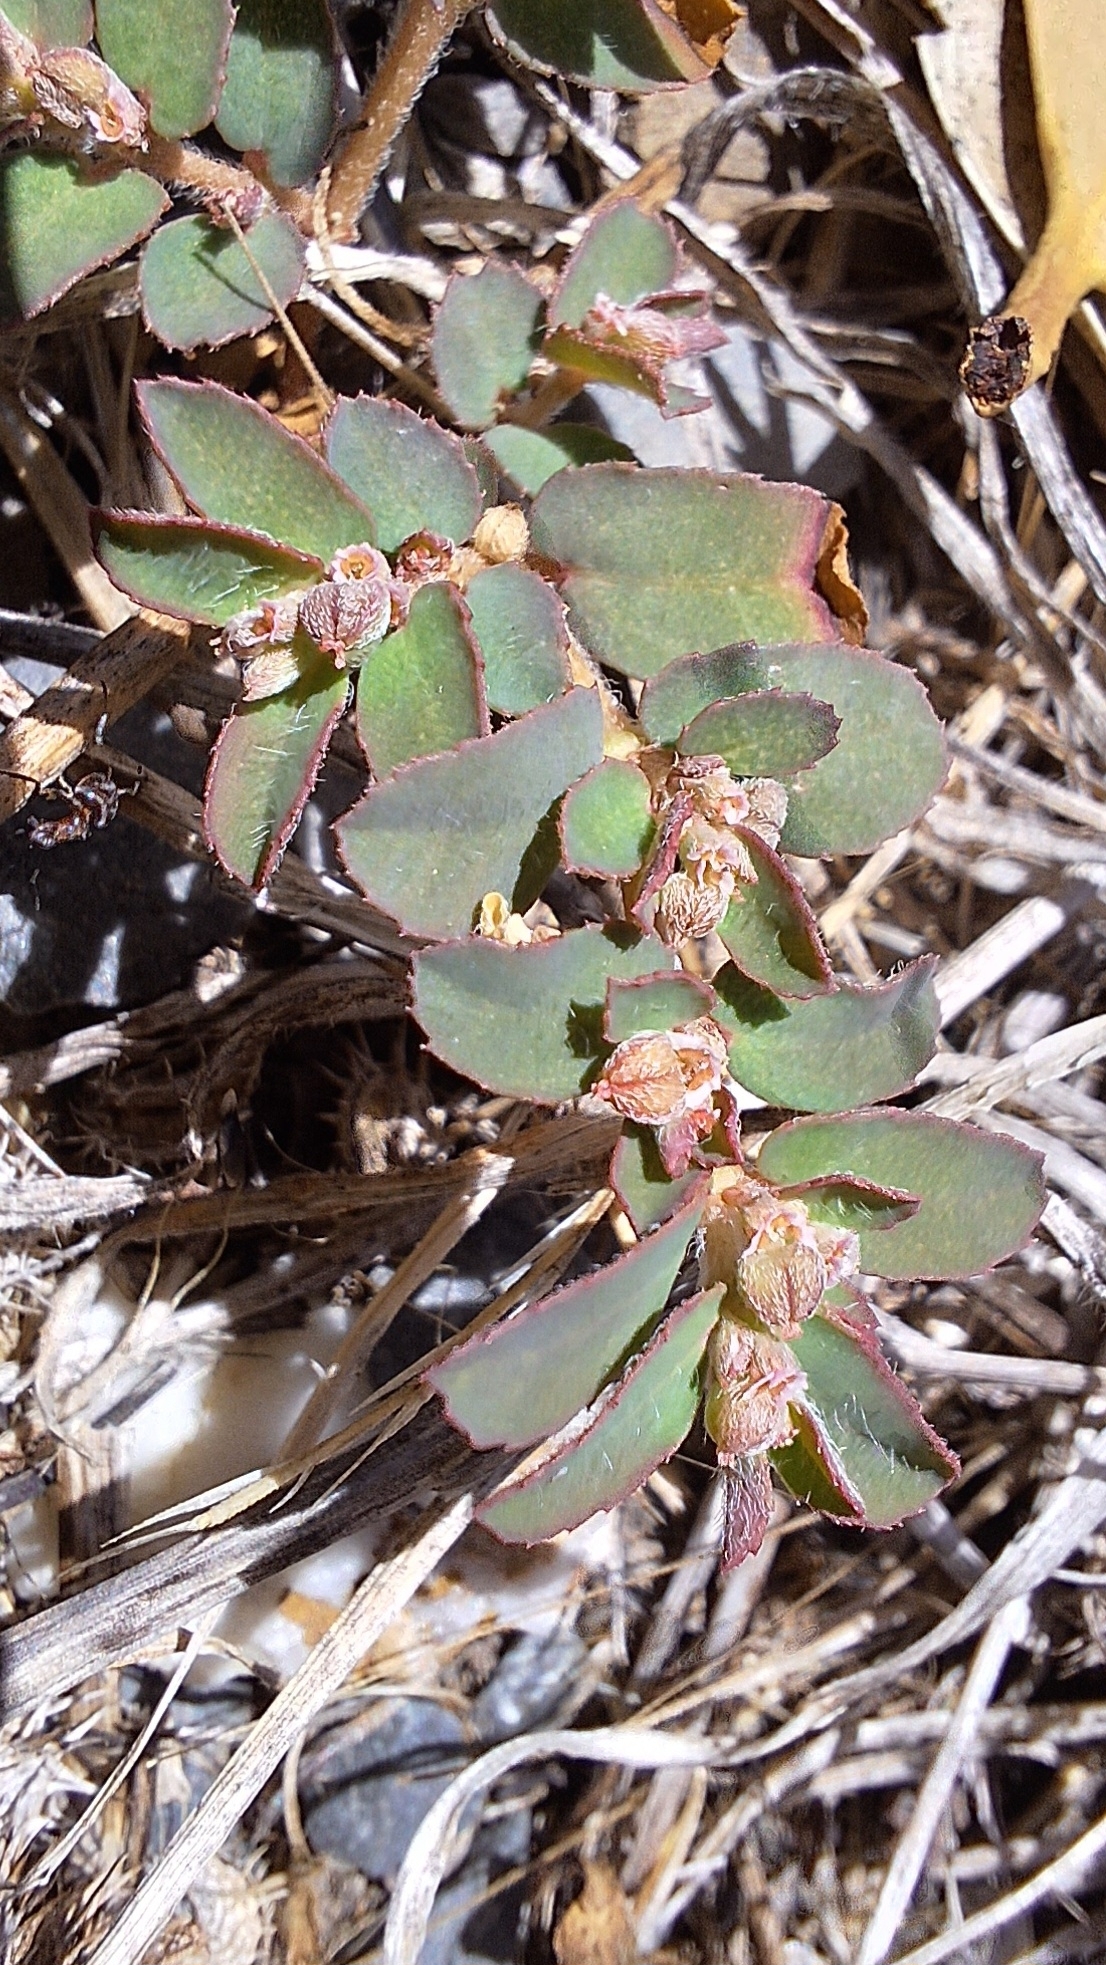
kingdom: Plantae
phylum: Tracheophyta
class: Magnoliopsida
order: Malpighiales
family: Euphorbiaceae
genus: Euphorbia
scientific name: Euphorbia maculata
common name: Spotted spurge
